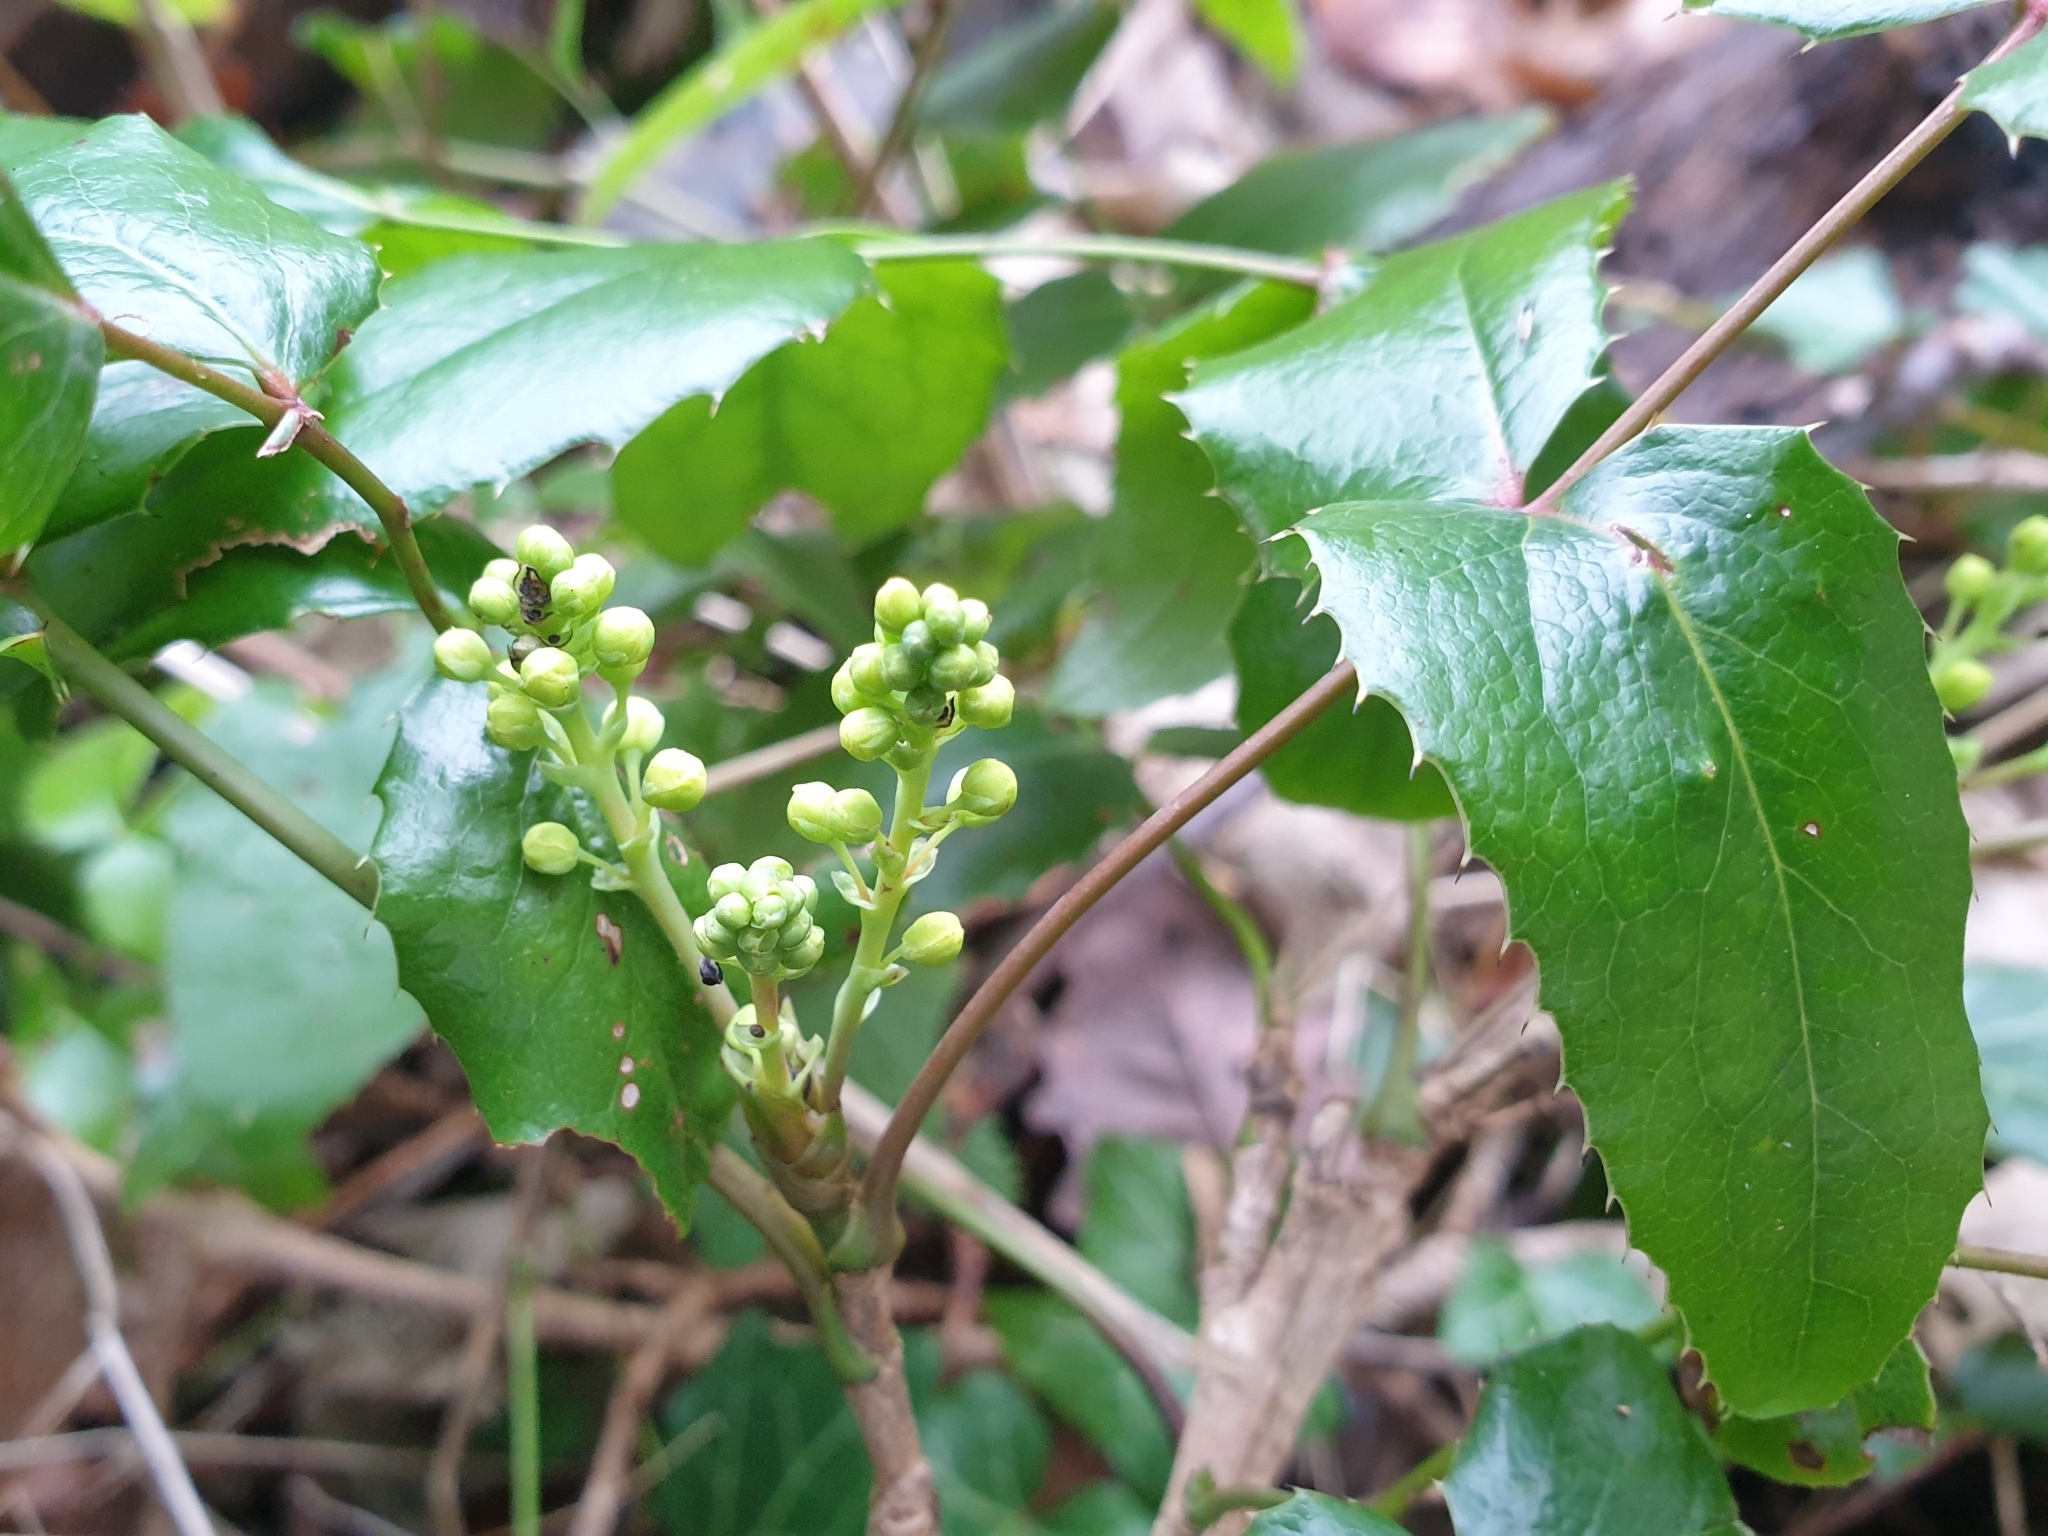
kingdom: Plantae
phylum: Tracheophyta
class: Magnoliopsida
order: Ranunculales
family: Berberidaceae
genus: Mahonia
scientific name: Mahonia aquifolium
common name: Oregon-grape
